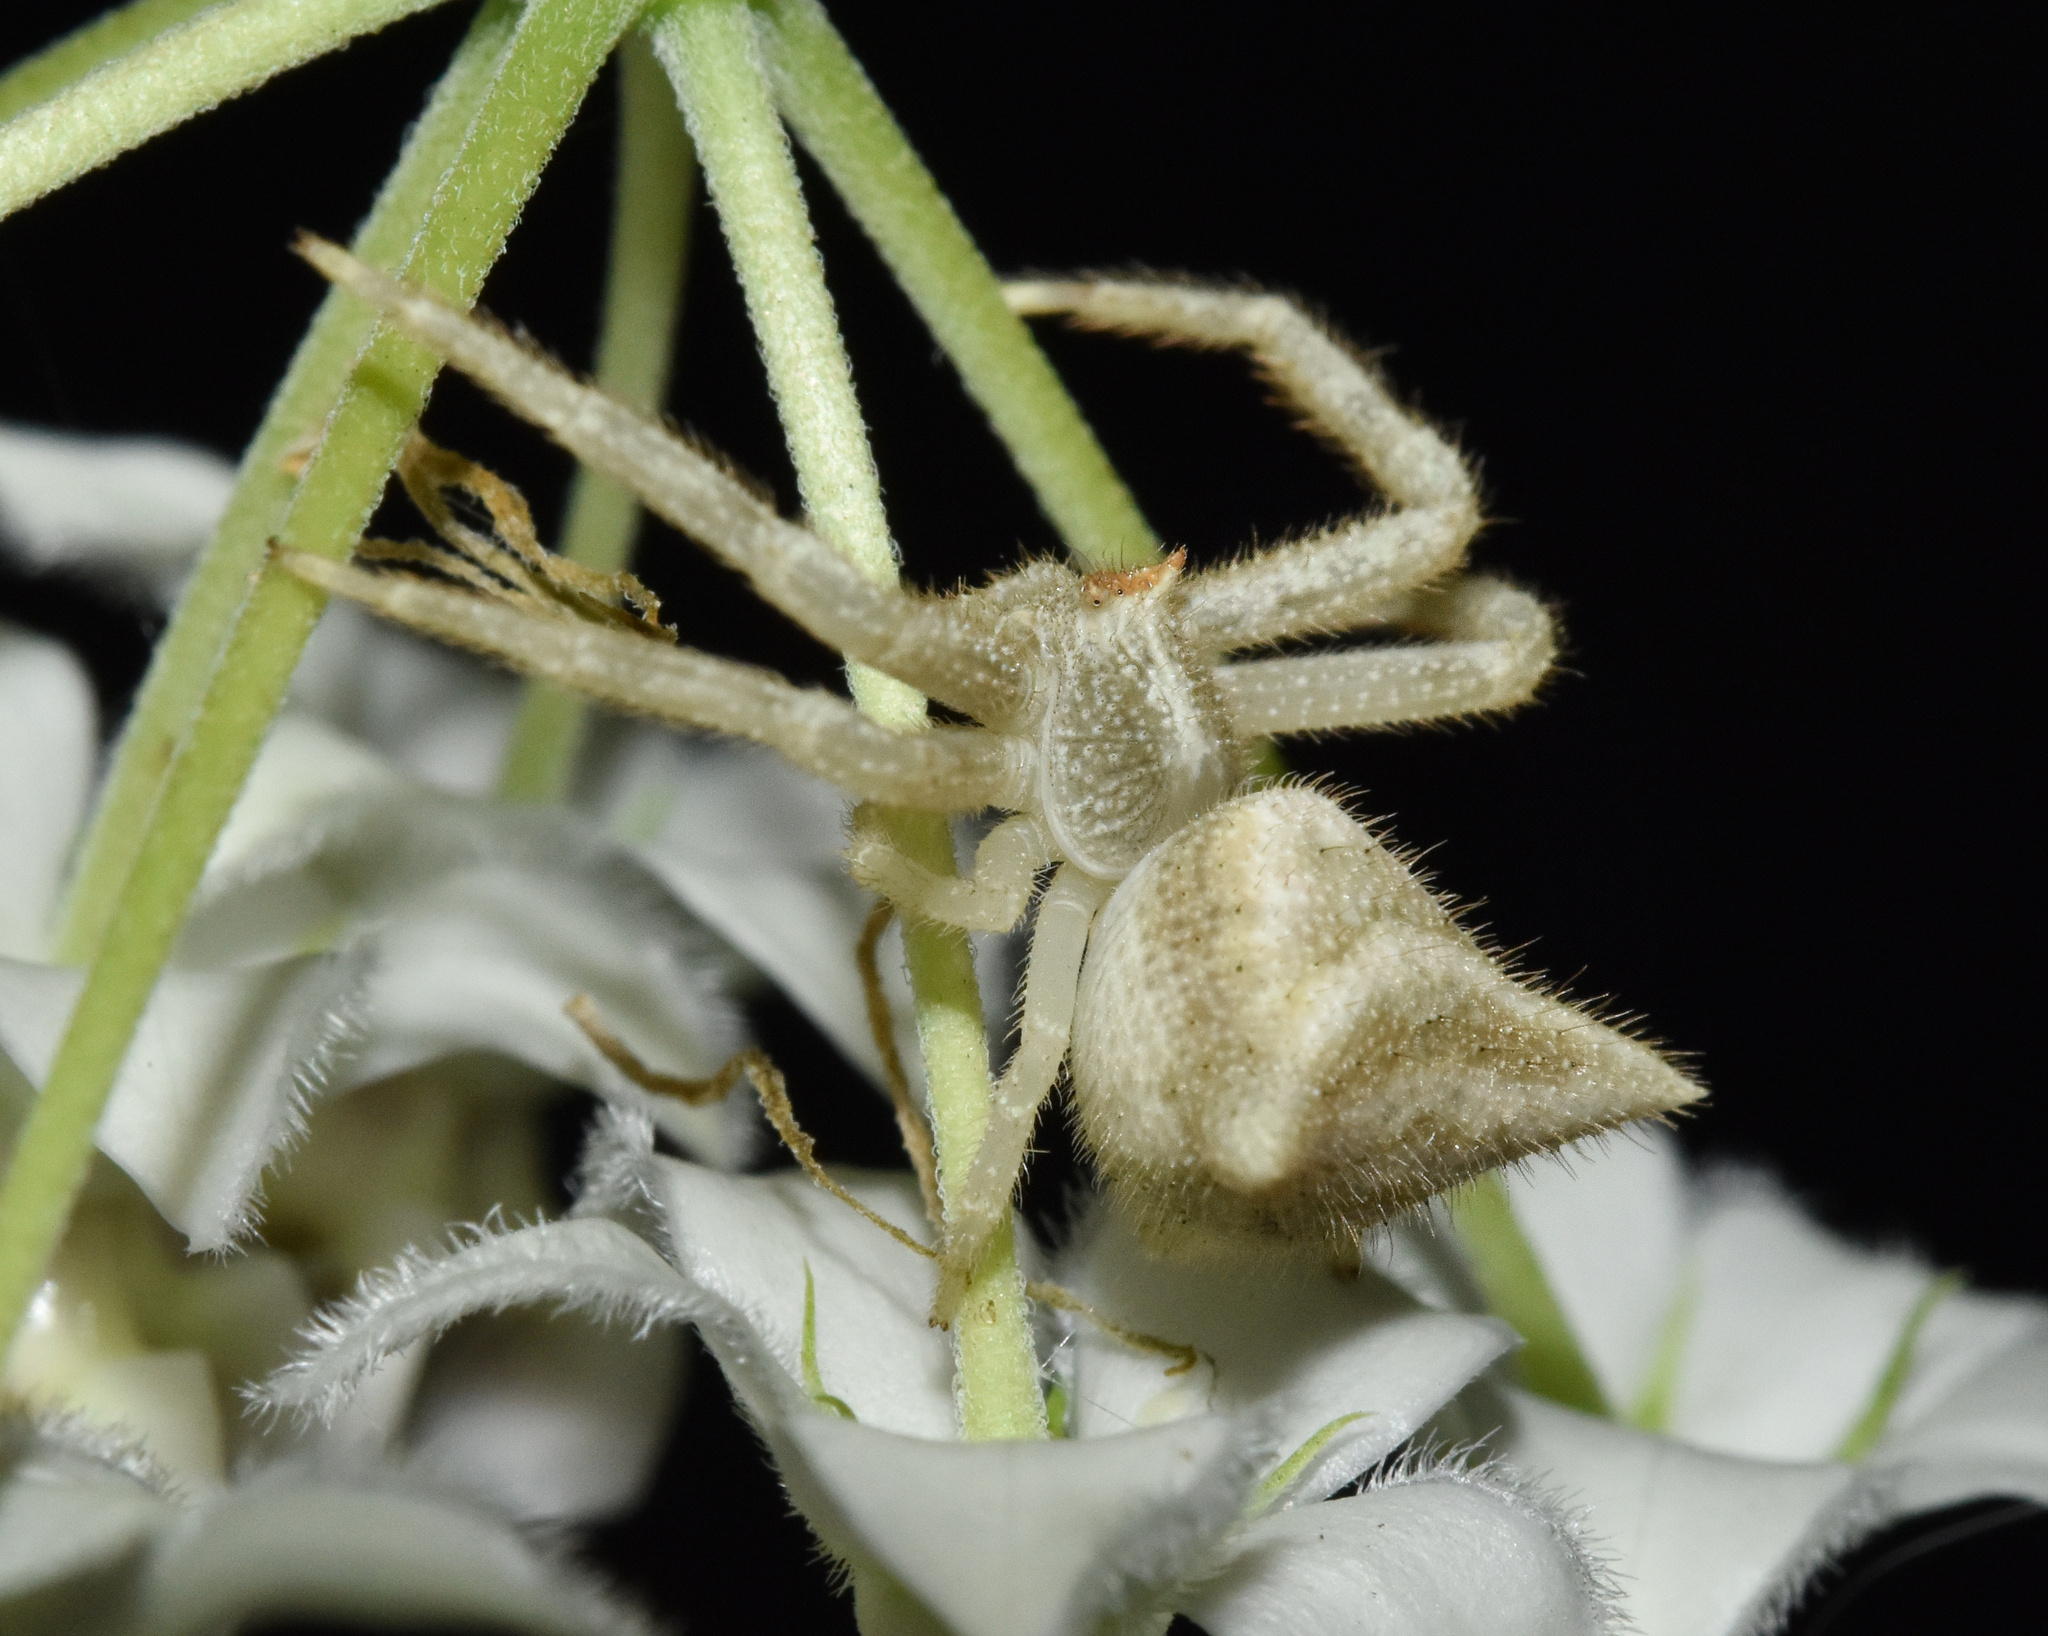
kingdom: Animalia
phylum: Arthropoda
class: Arachnida
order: Araneae
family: Thomisidae
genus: Thomisus
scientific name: Thomisus granulatus
